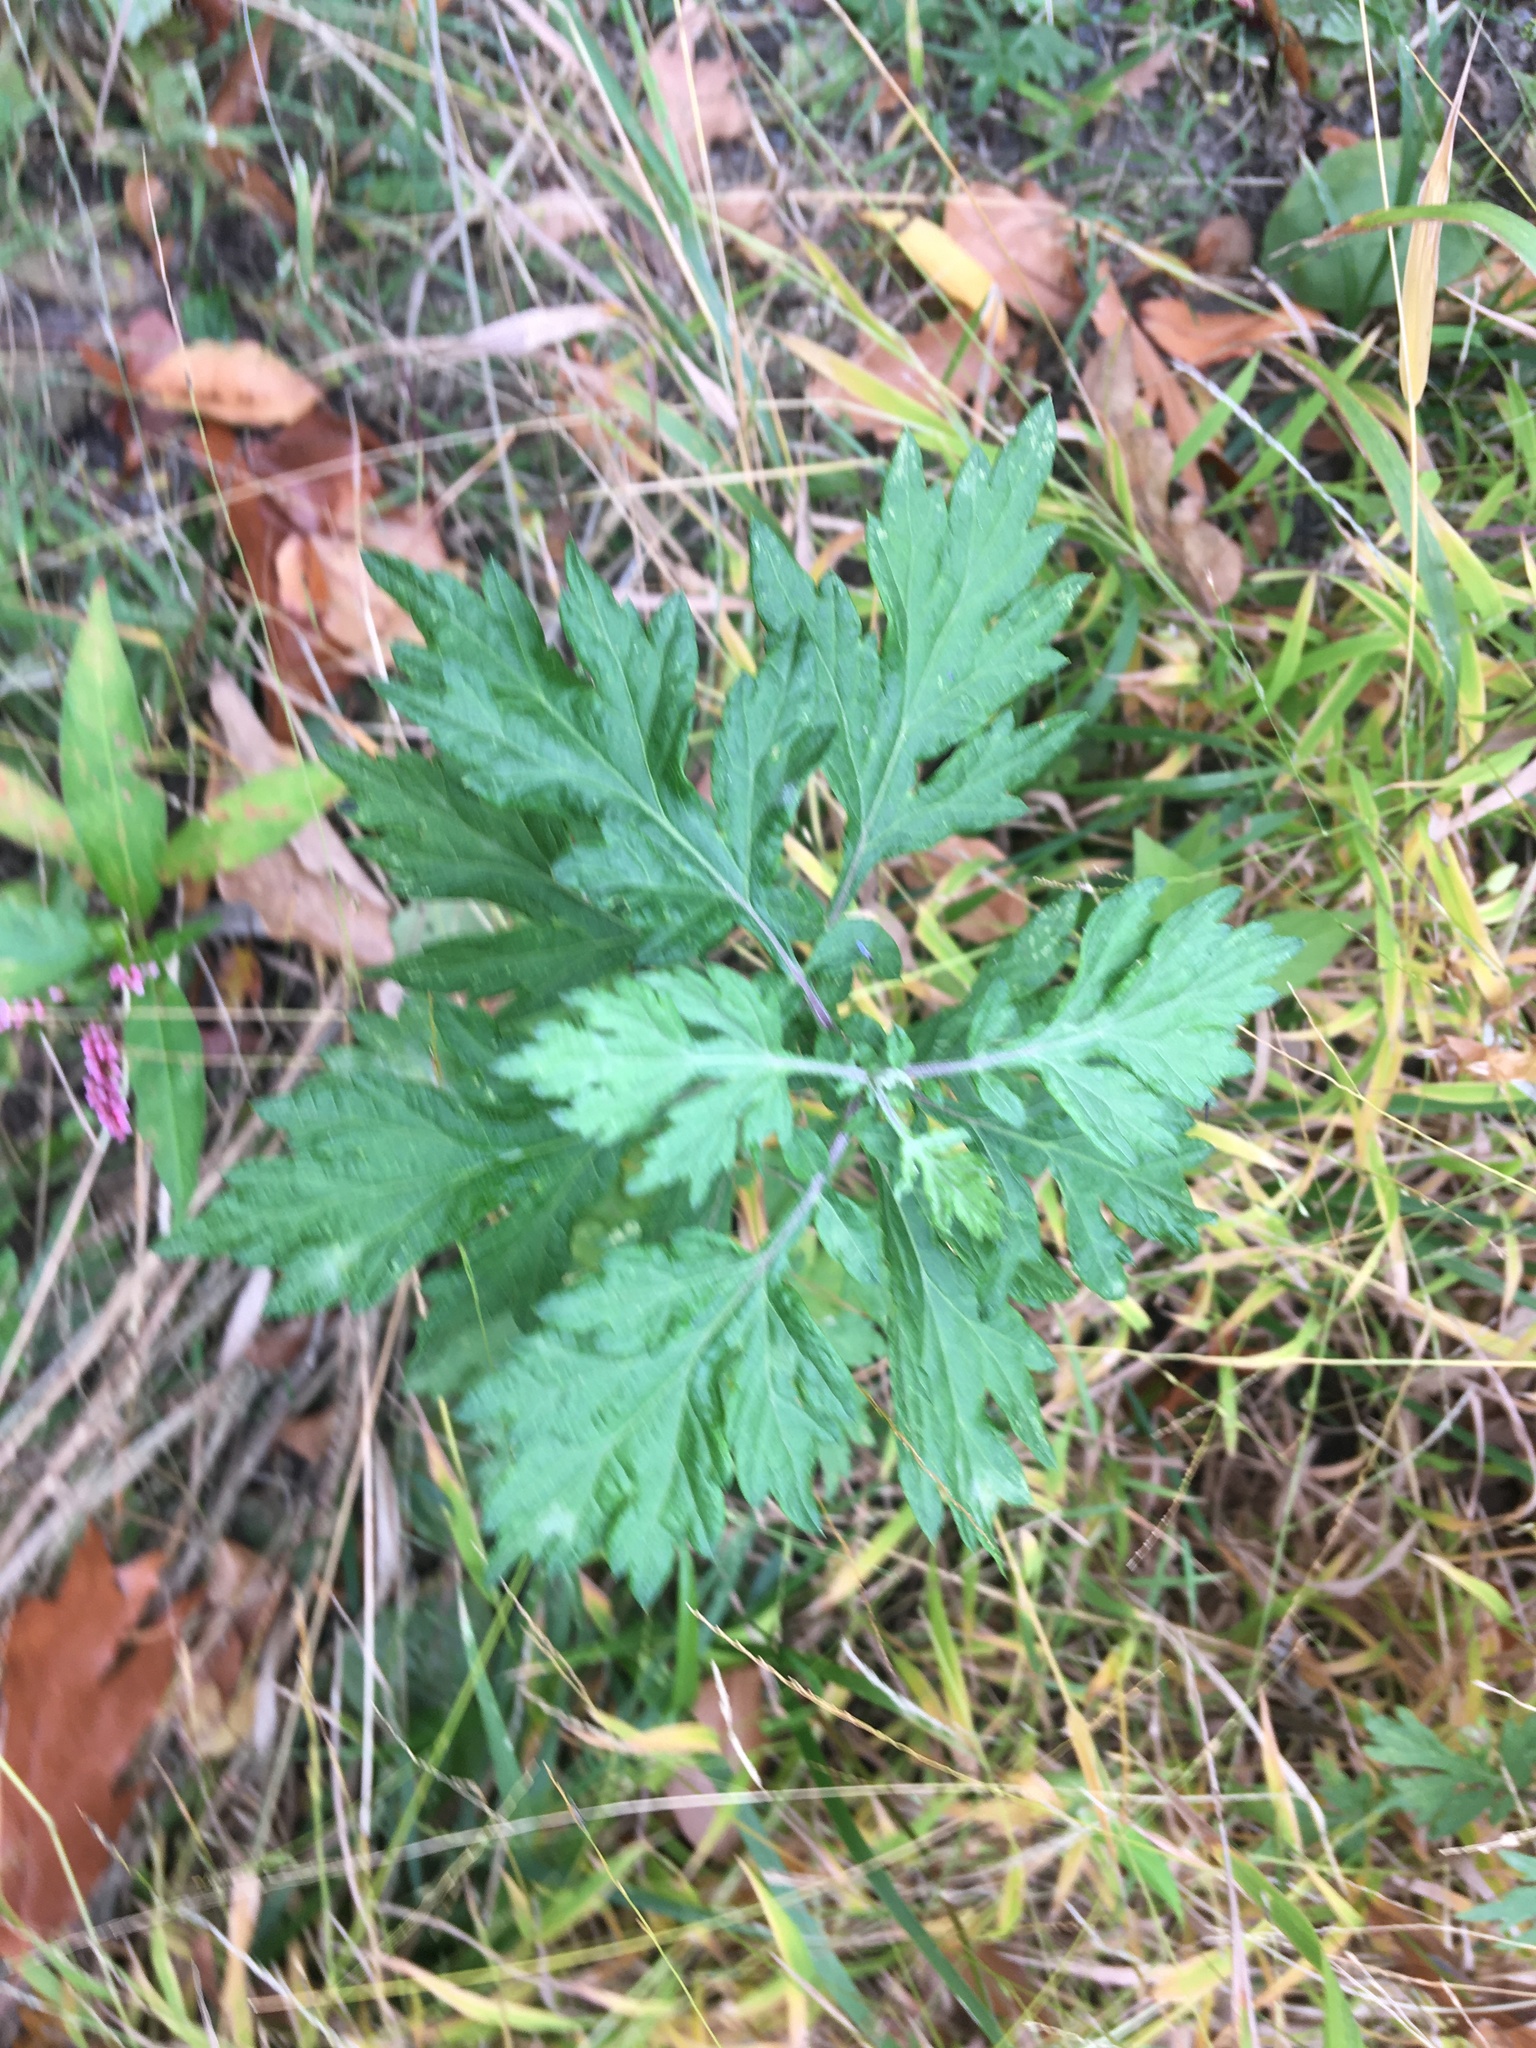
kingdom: Plantae
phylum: Tracheophyta
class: Magnoliopsida
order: Asterales
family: Asteraceae
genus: Artemisia
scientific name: Artemisia vulgaris
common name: Mugwort
